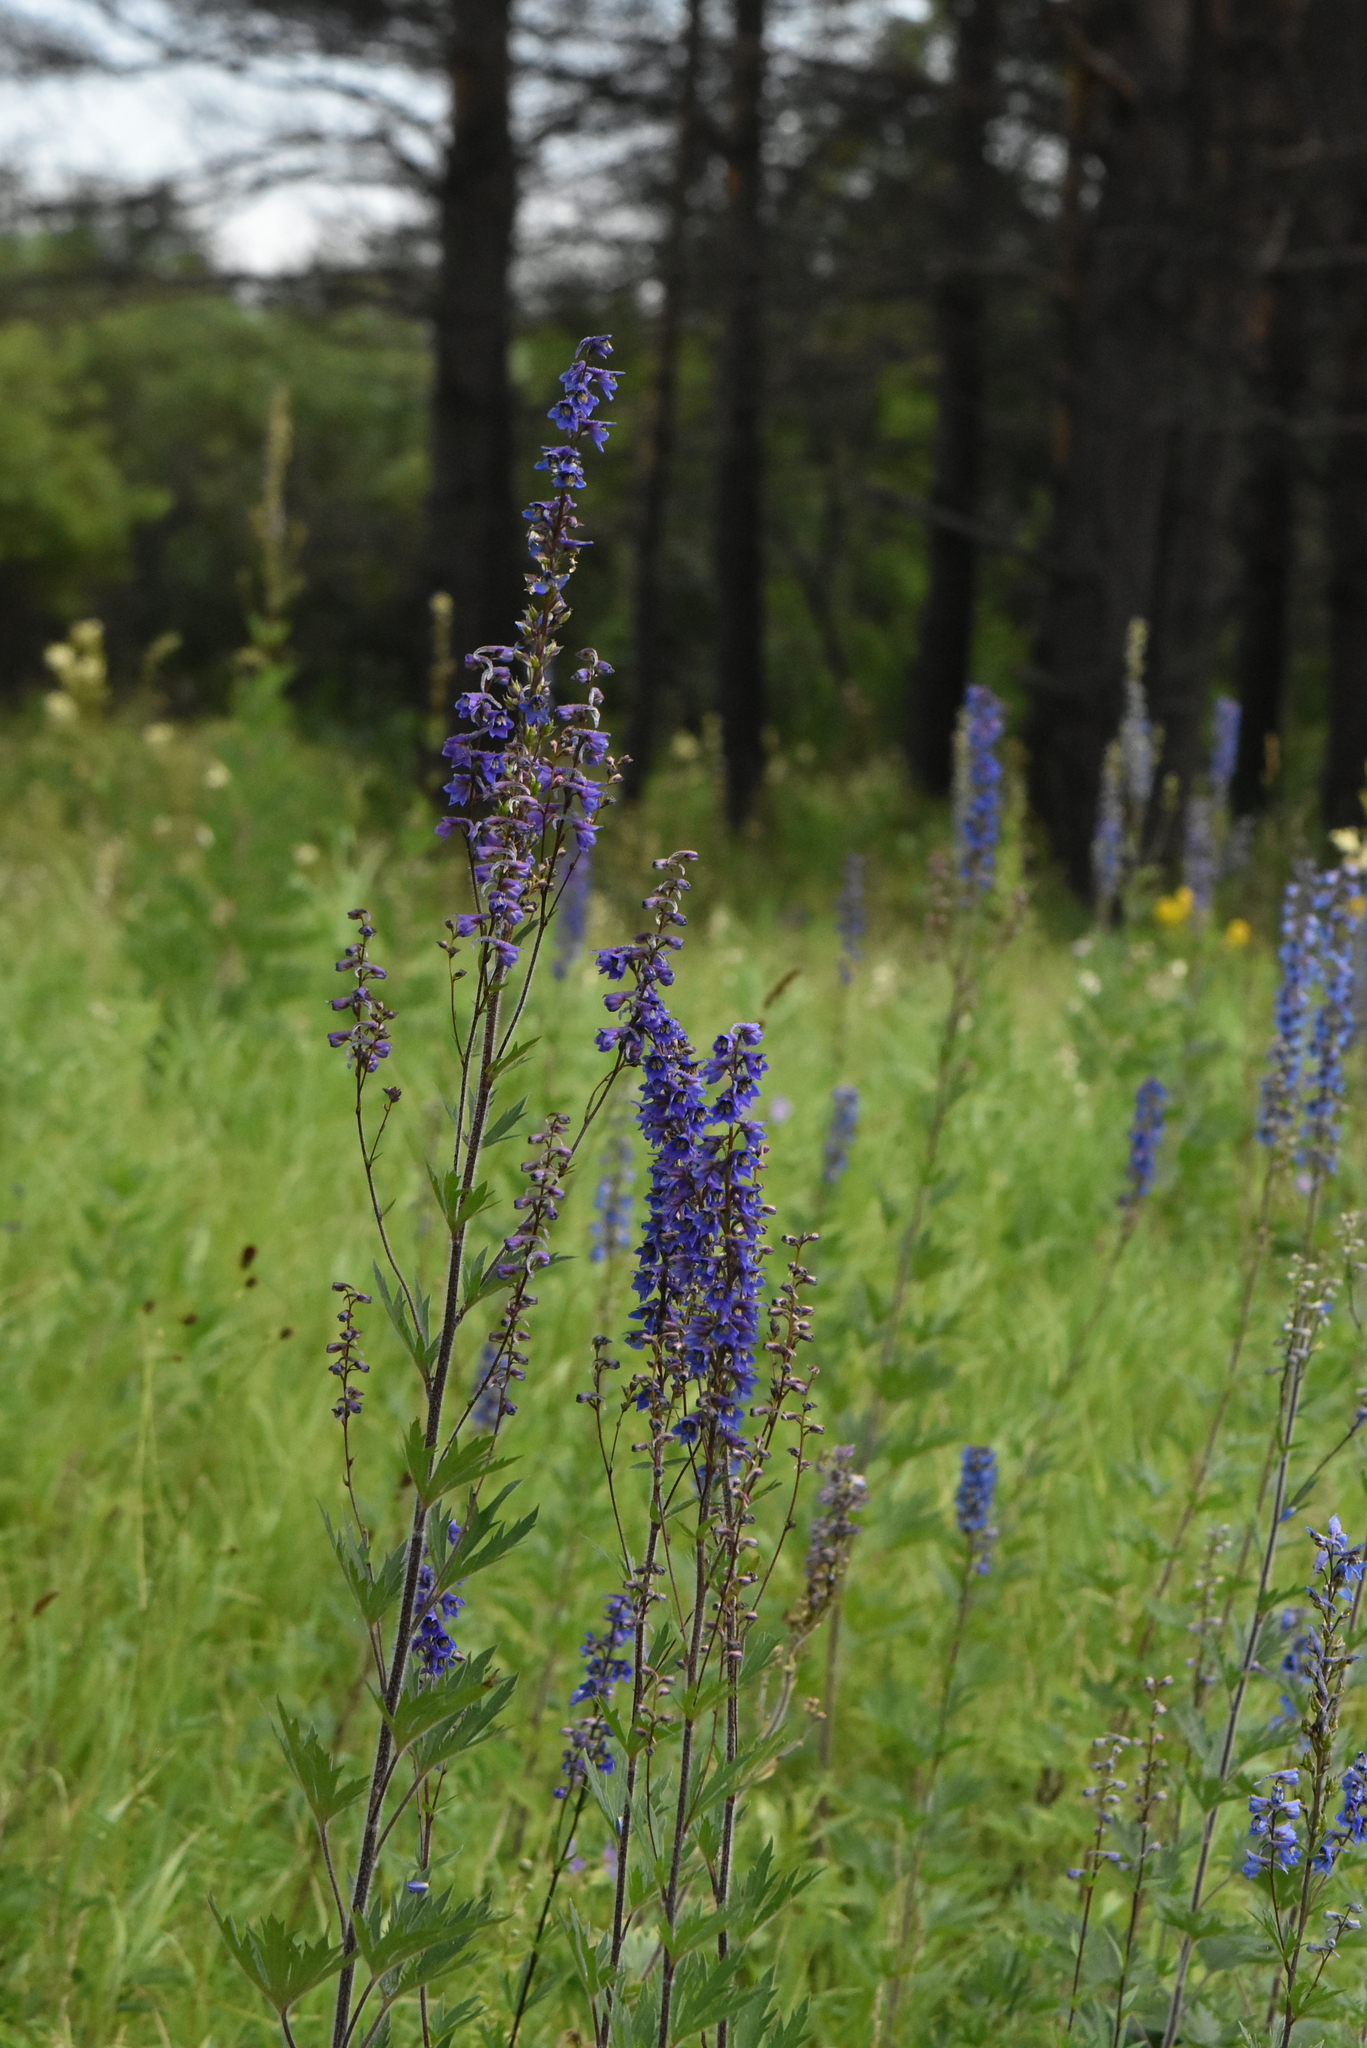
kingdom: Plantae
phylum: Tracheophyta
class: Magnoliopsida
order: Ranunculales
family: Ranunculaceae
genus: Delphinium
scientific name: Delphinium retropilosum
